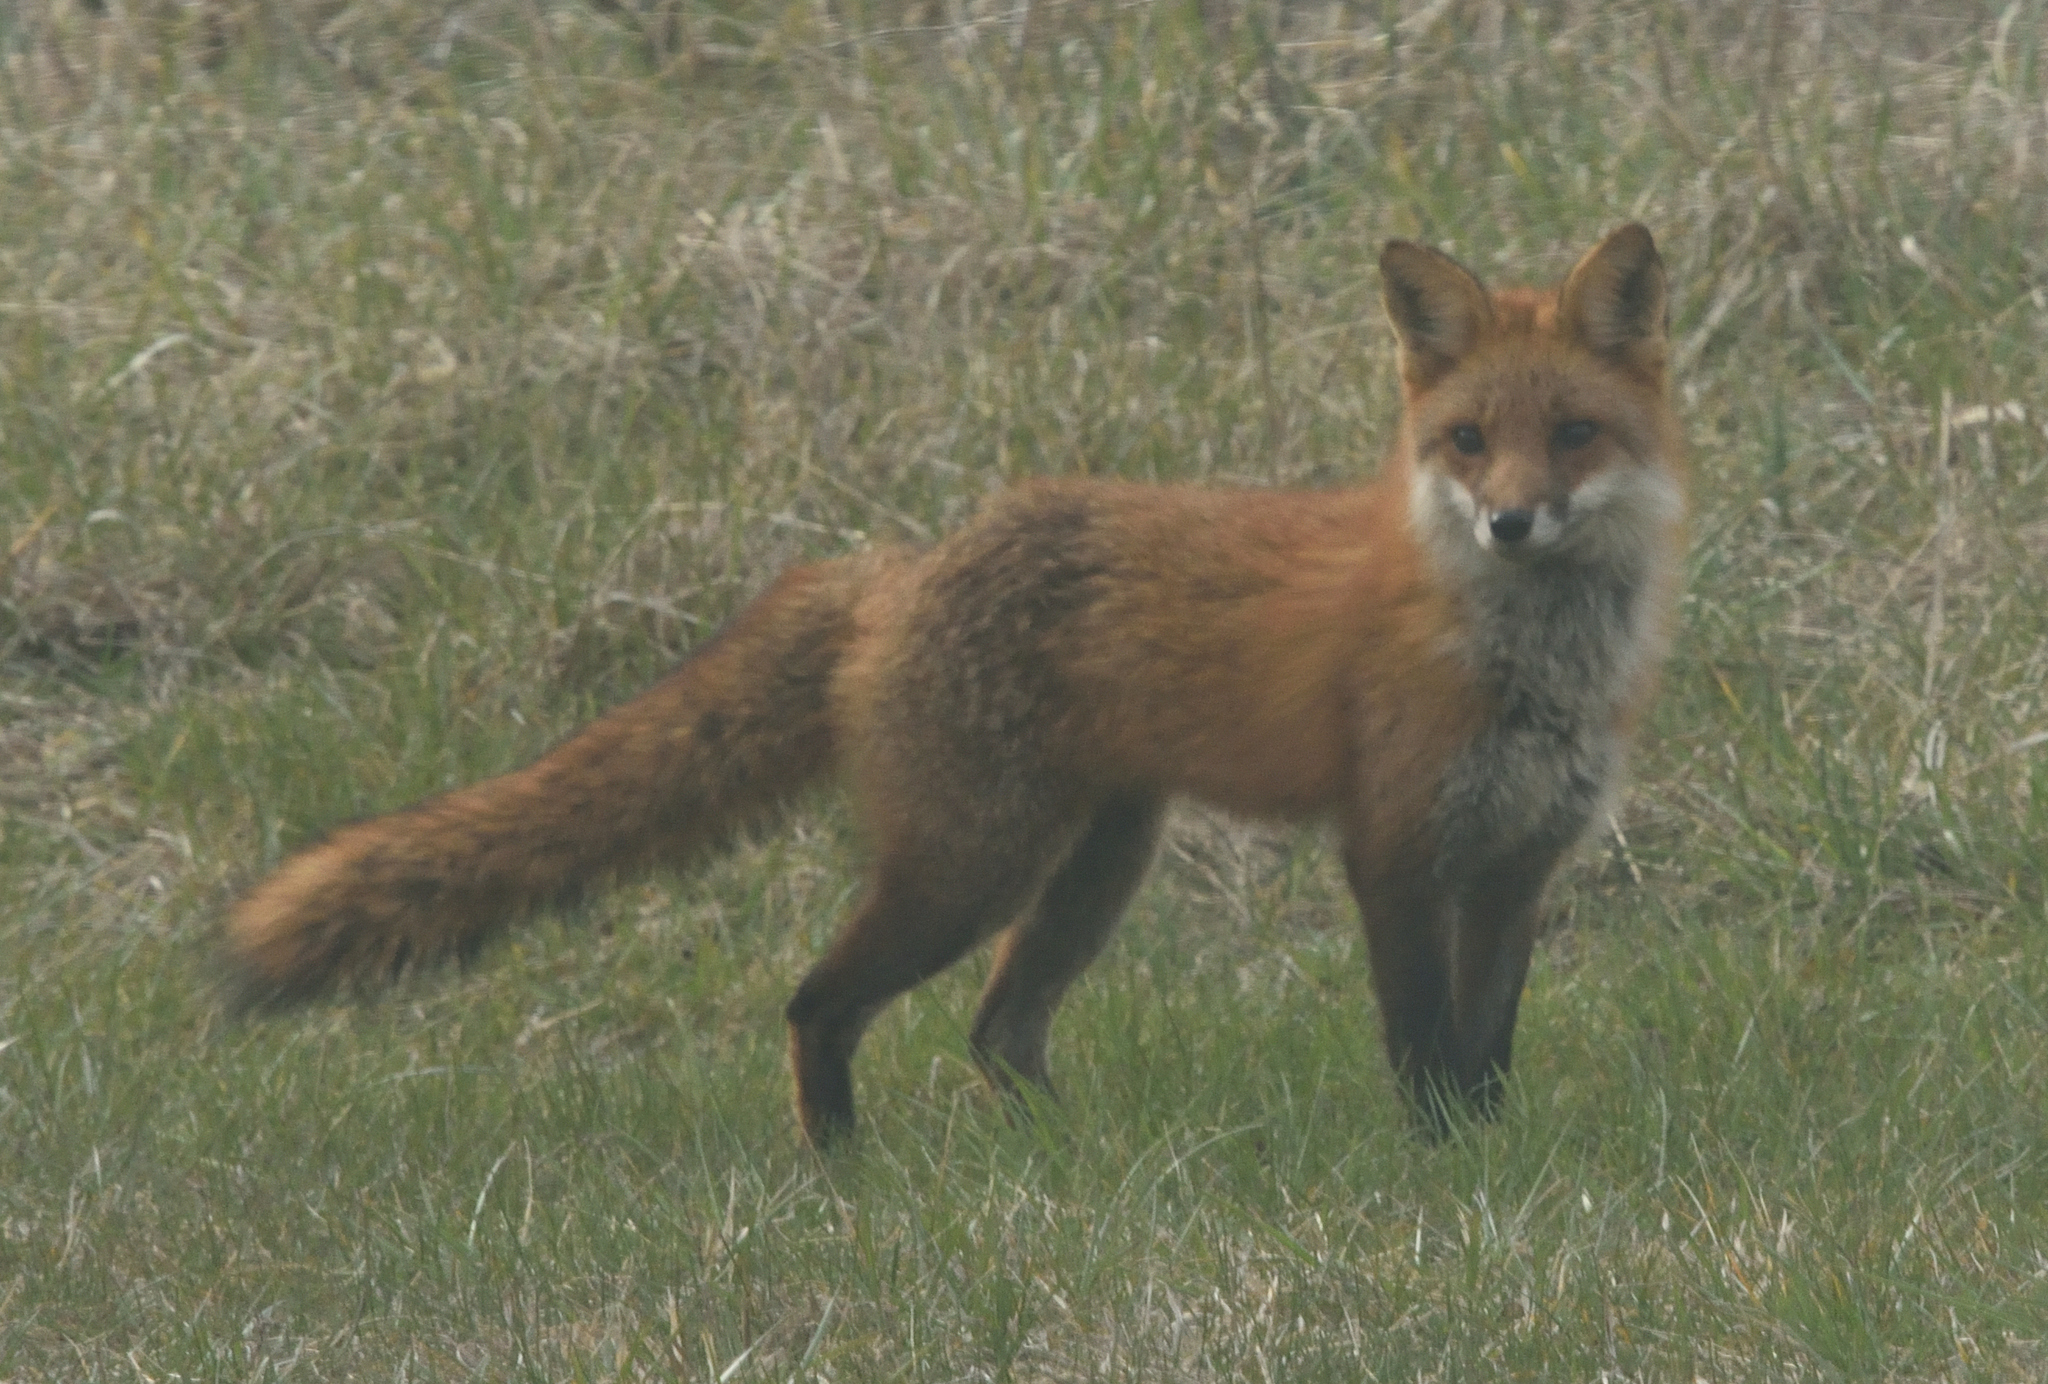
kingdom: Animalia
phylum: Chordata
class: Mammalia
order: Carnivora
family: Canidae
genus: Vulpes
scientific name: Vulpes vulpes
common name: Red fox
